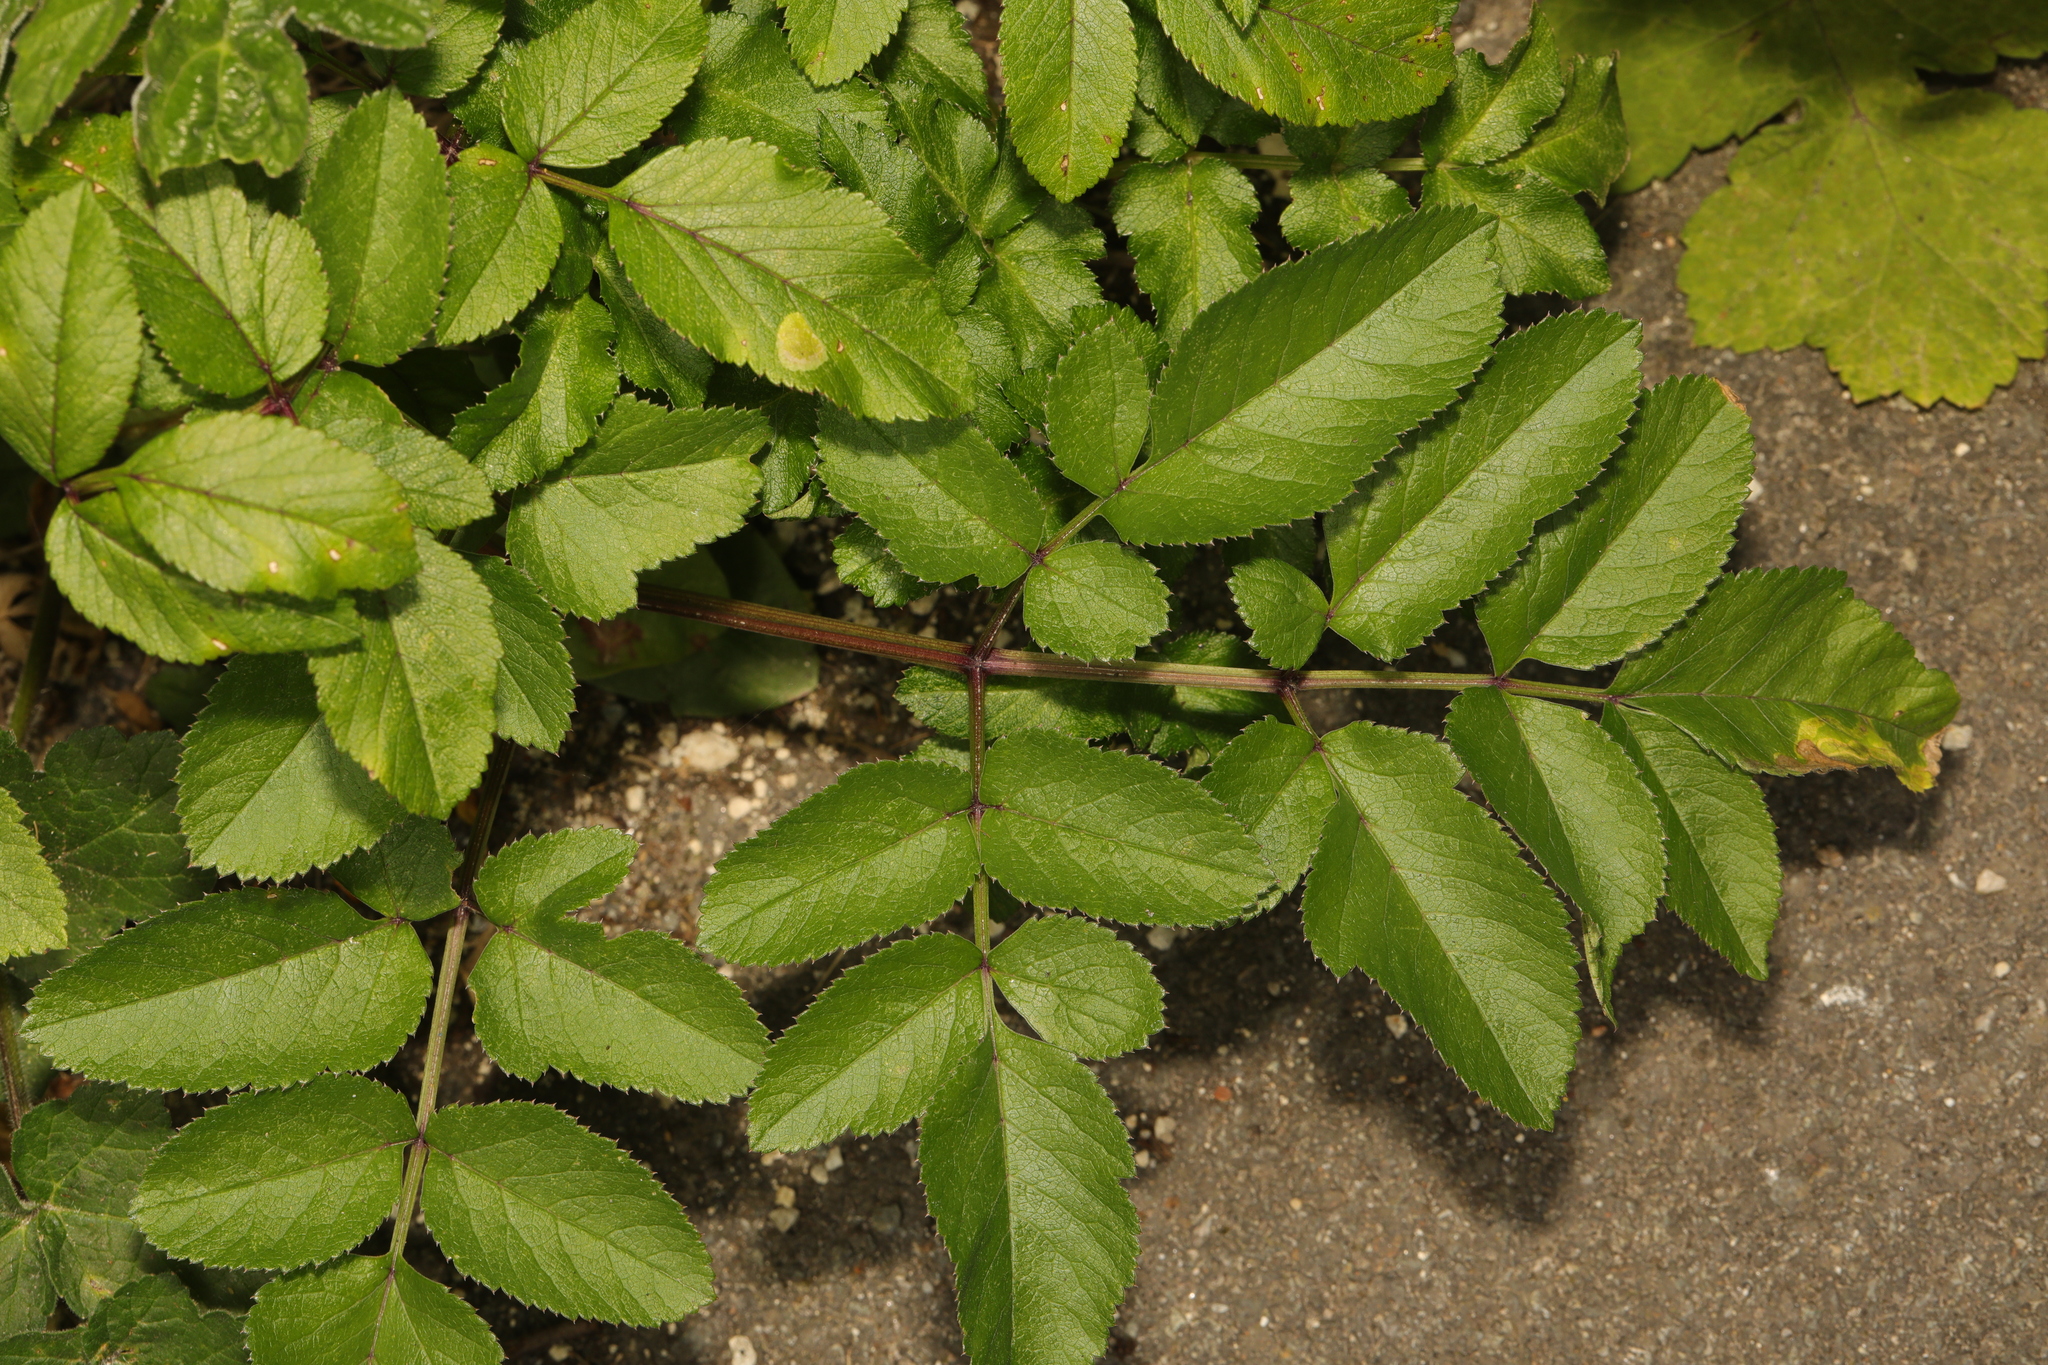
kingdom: Plantae
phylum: Tracheophyta
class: Magnoliopsida
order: Apiales
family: Apiaceae
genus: Angelica
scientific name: Angelica sylvestris
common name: Wild angelica
